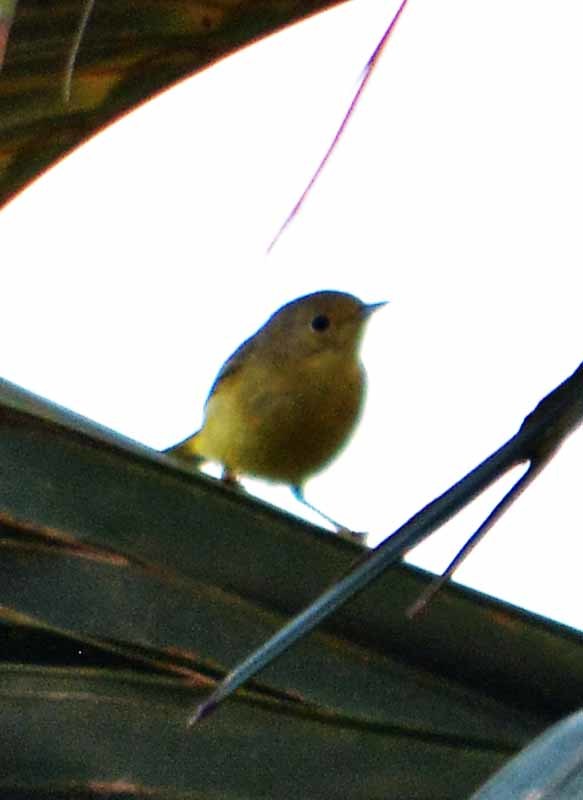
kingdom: Animalia
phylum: Chordata
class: Aves
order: Passeriformes
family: Parulidae
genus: Cardellina
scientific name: Cardellina pusilla
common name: Wilson's warbler
